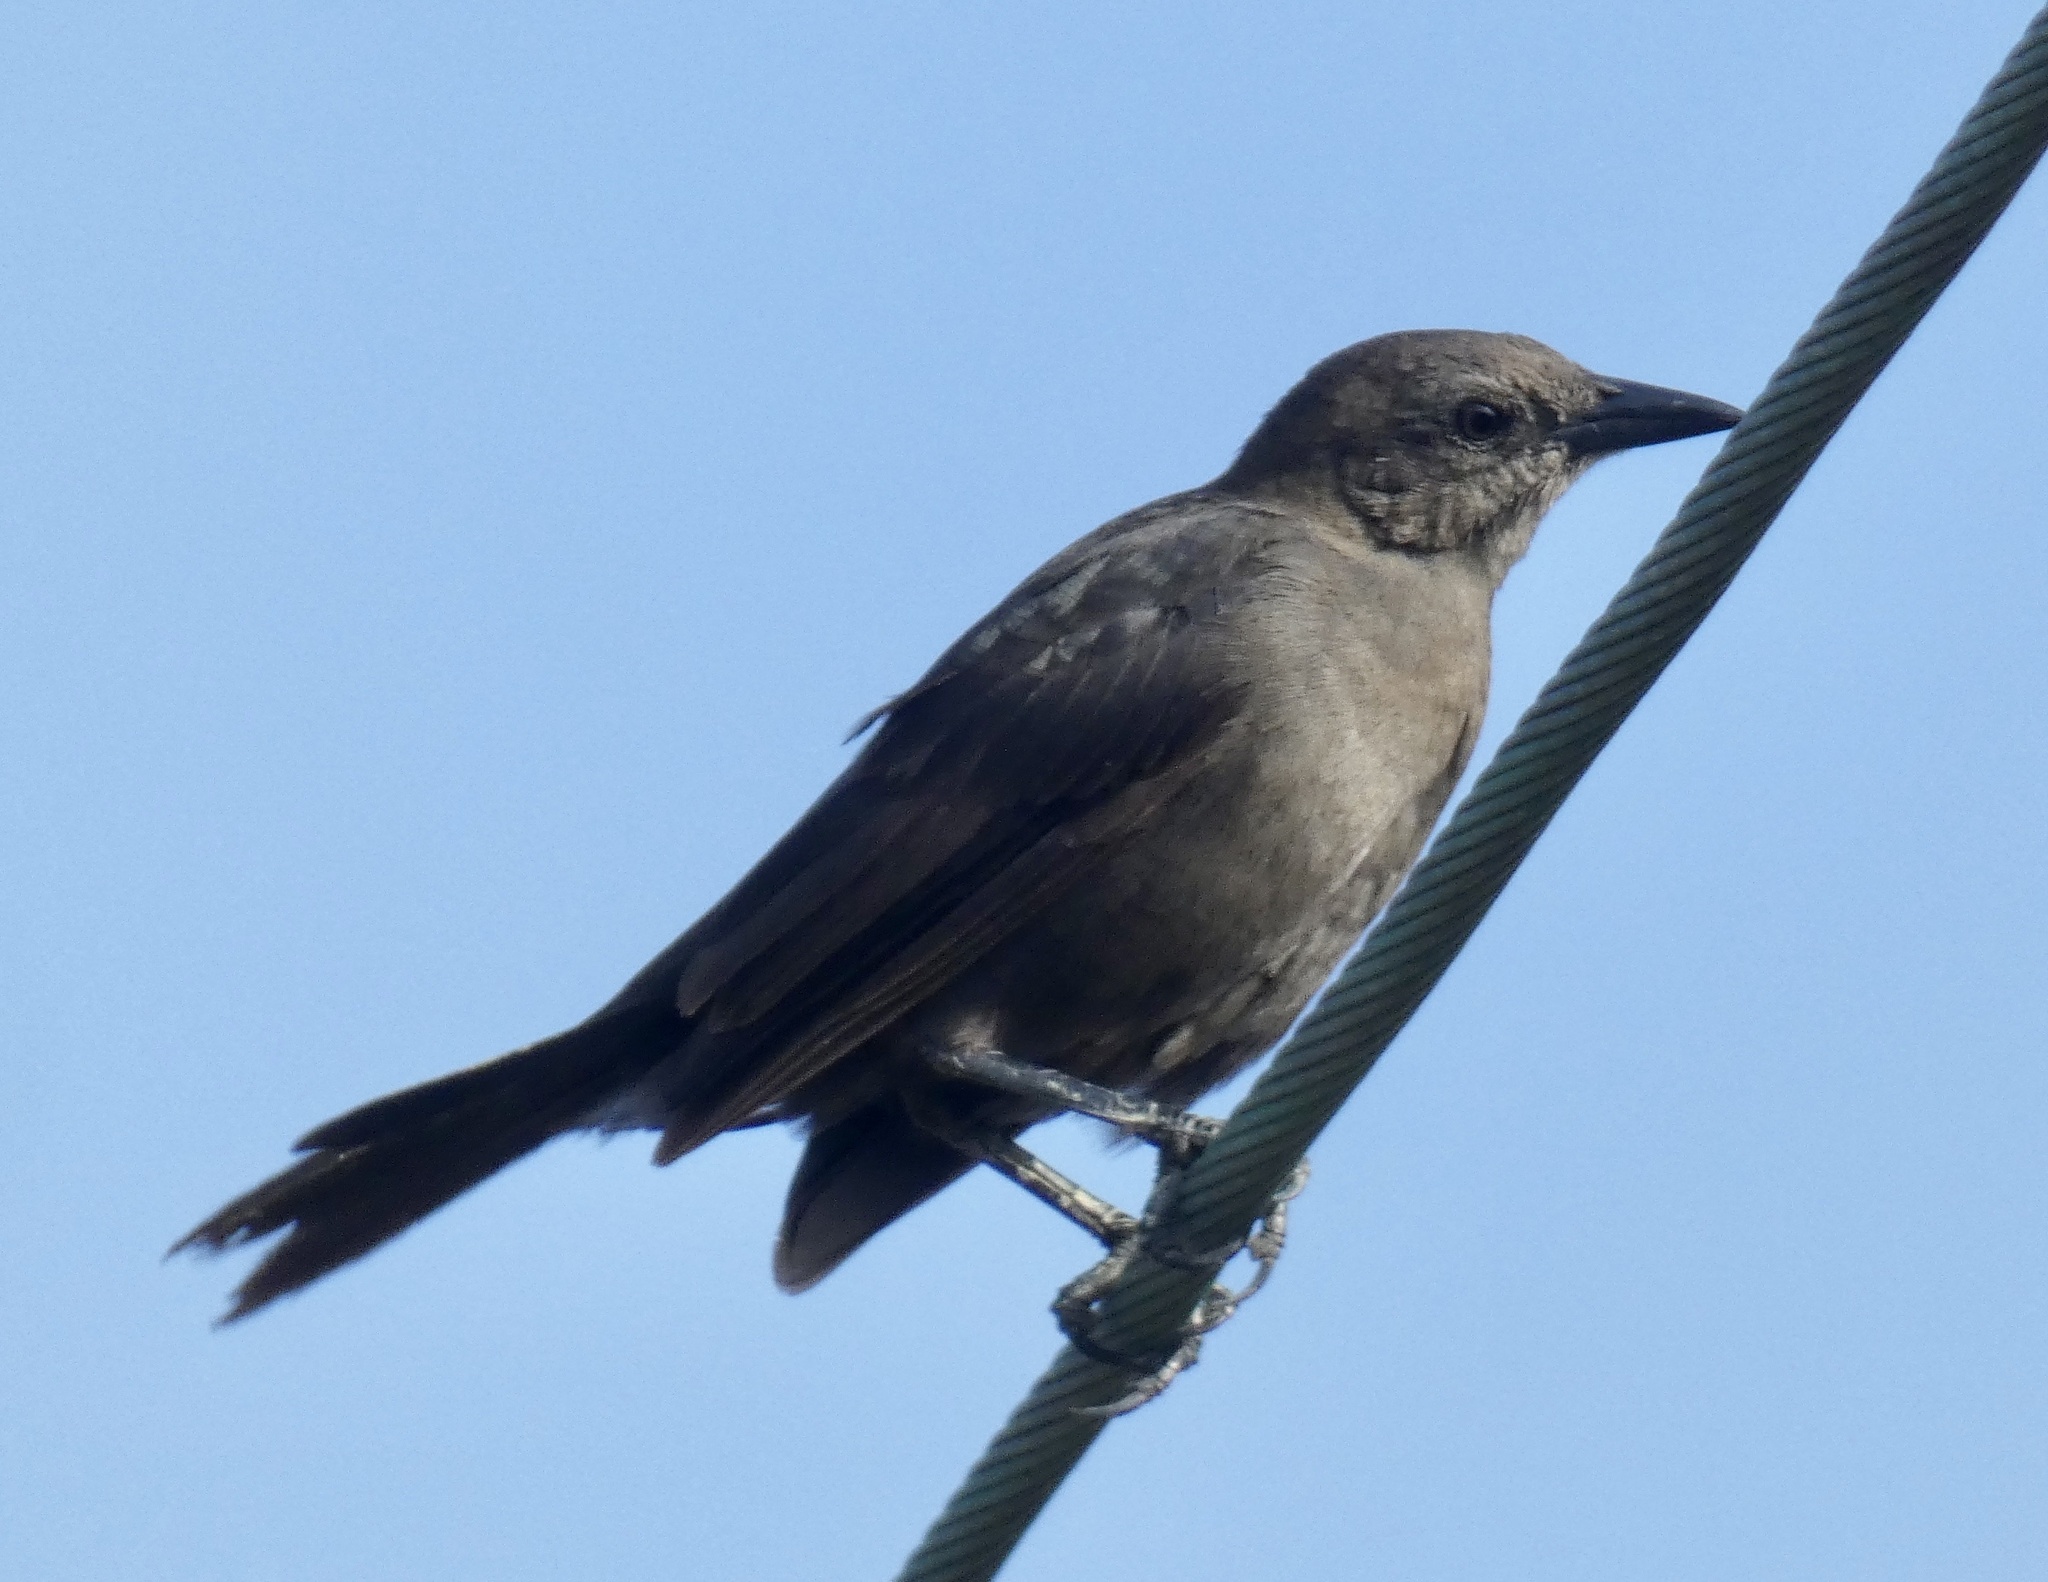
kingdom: Animalia
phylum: Chordata
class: Aves
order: Passeriformes
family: Icteridae
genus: Quiscalus
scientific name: Quiscalus lugubris
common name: Carib grackle
